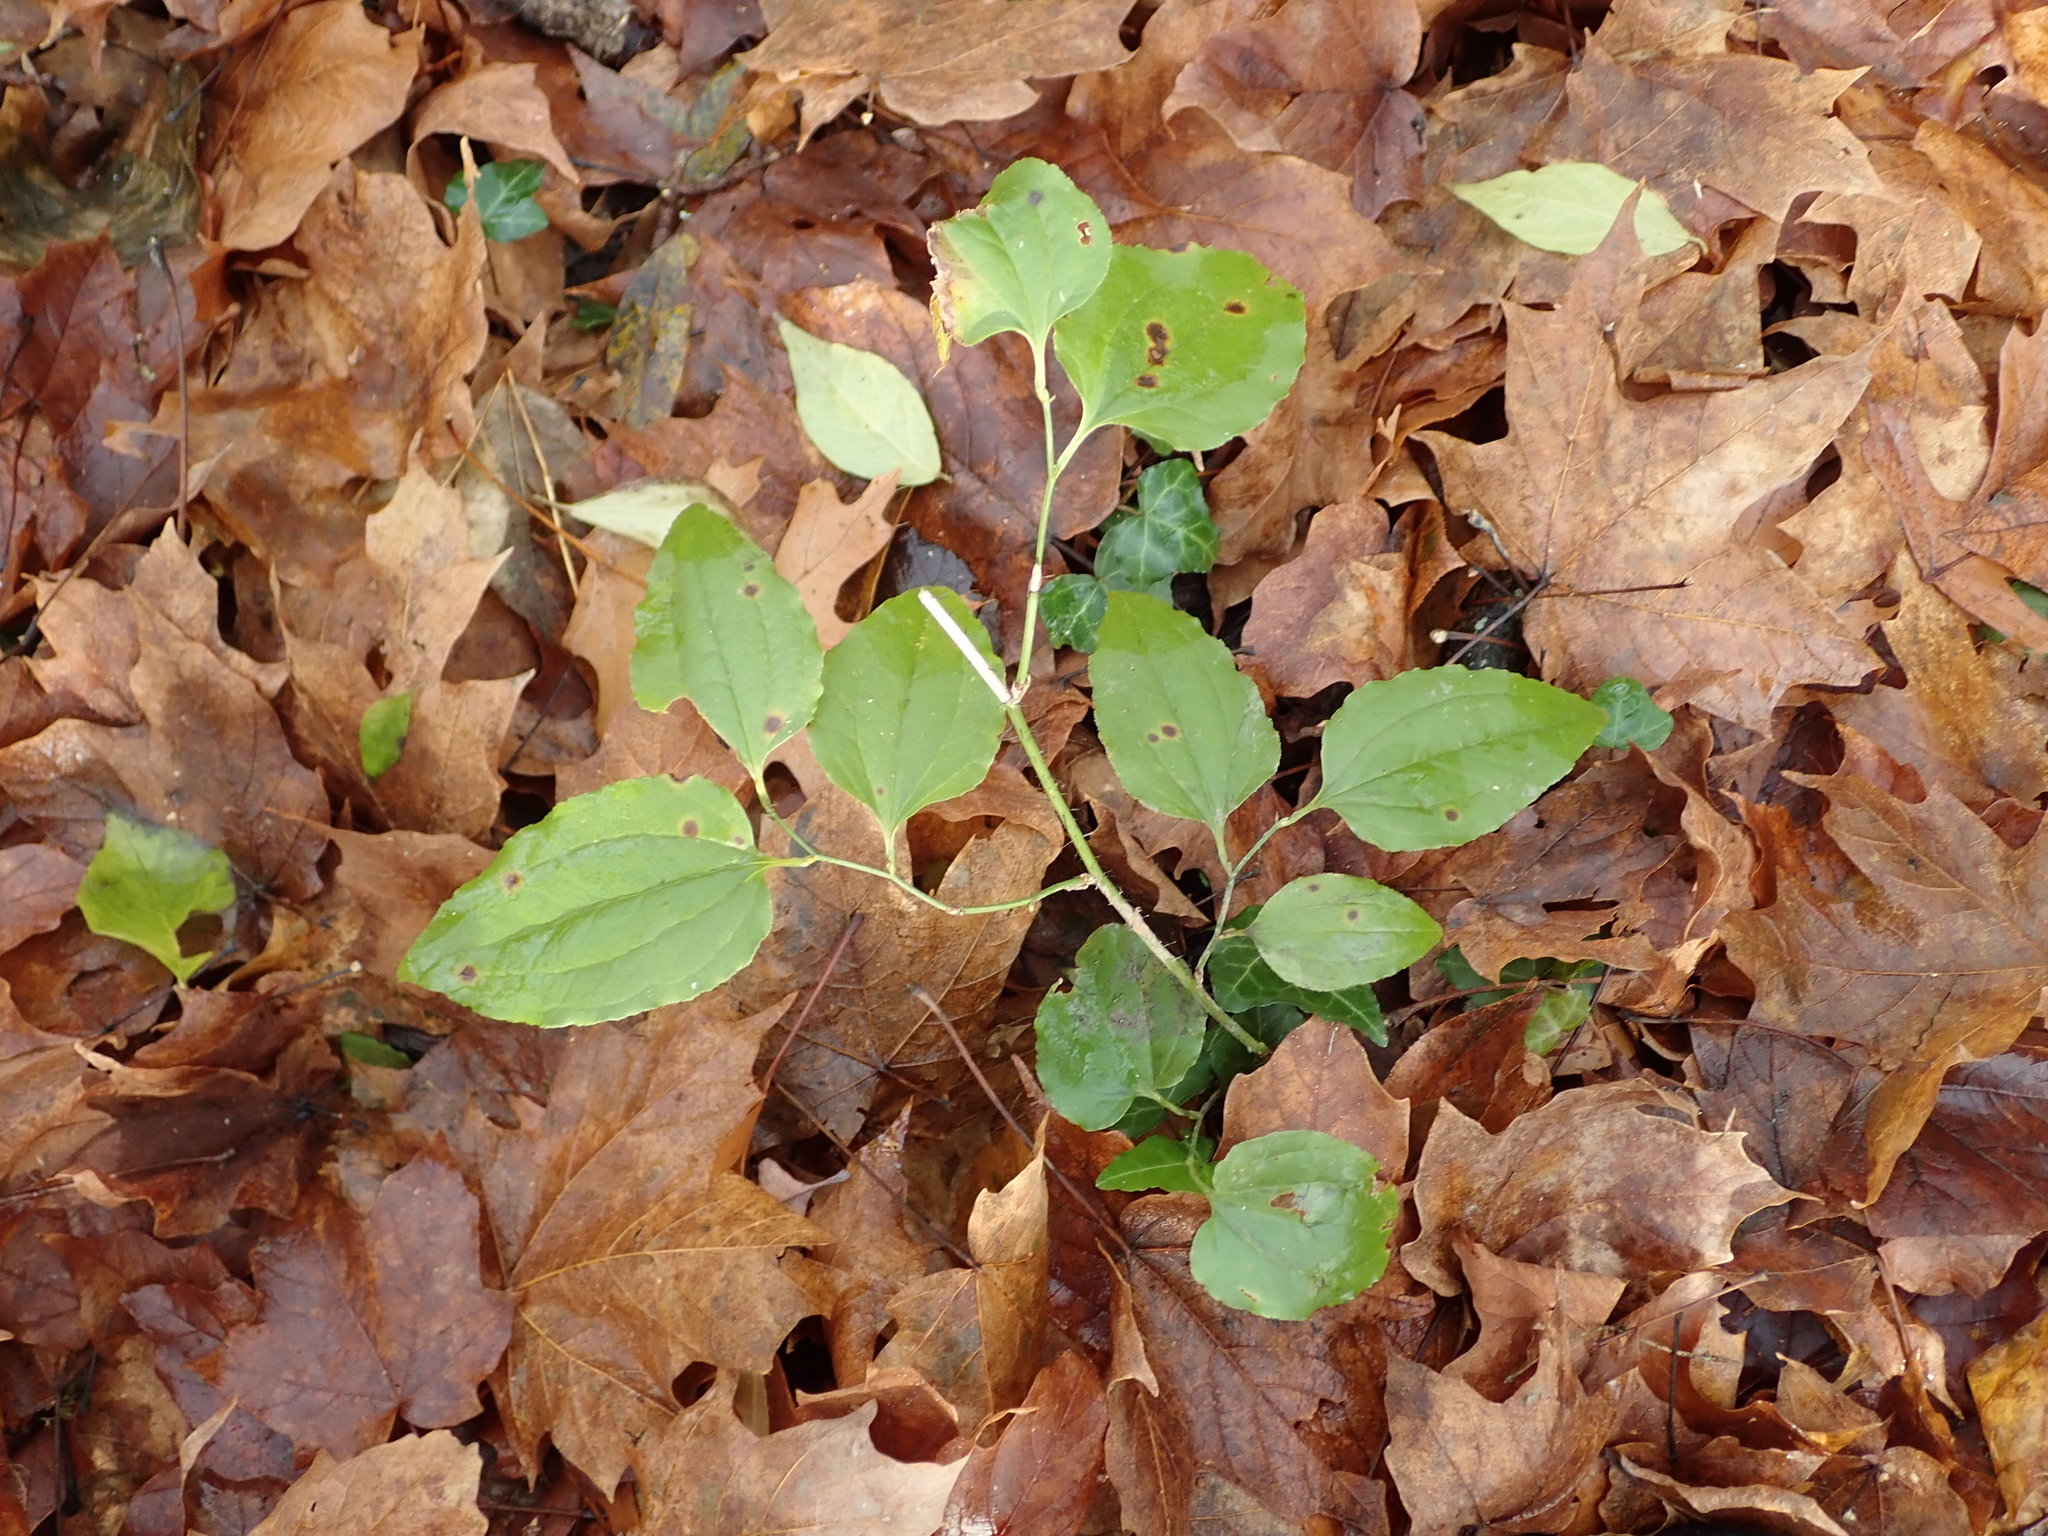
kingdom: Plantae
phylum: Tracheophyta
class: Liliopsida
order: Liliales
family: Smilacaceae
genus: Smilax
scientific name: Smilax tamnoides
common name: Hellfetter
